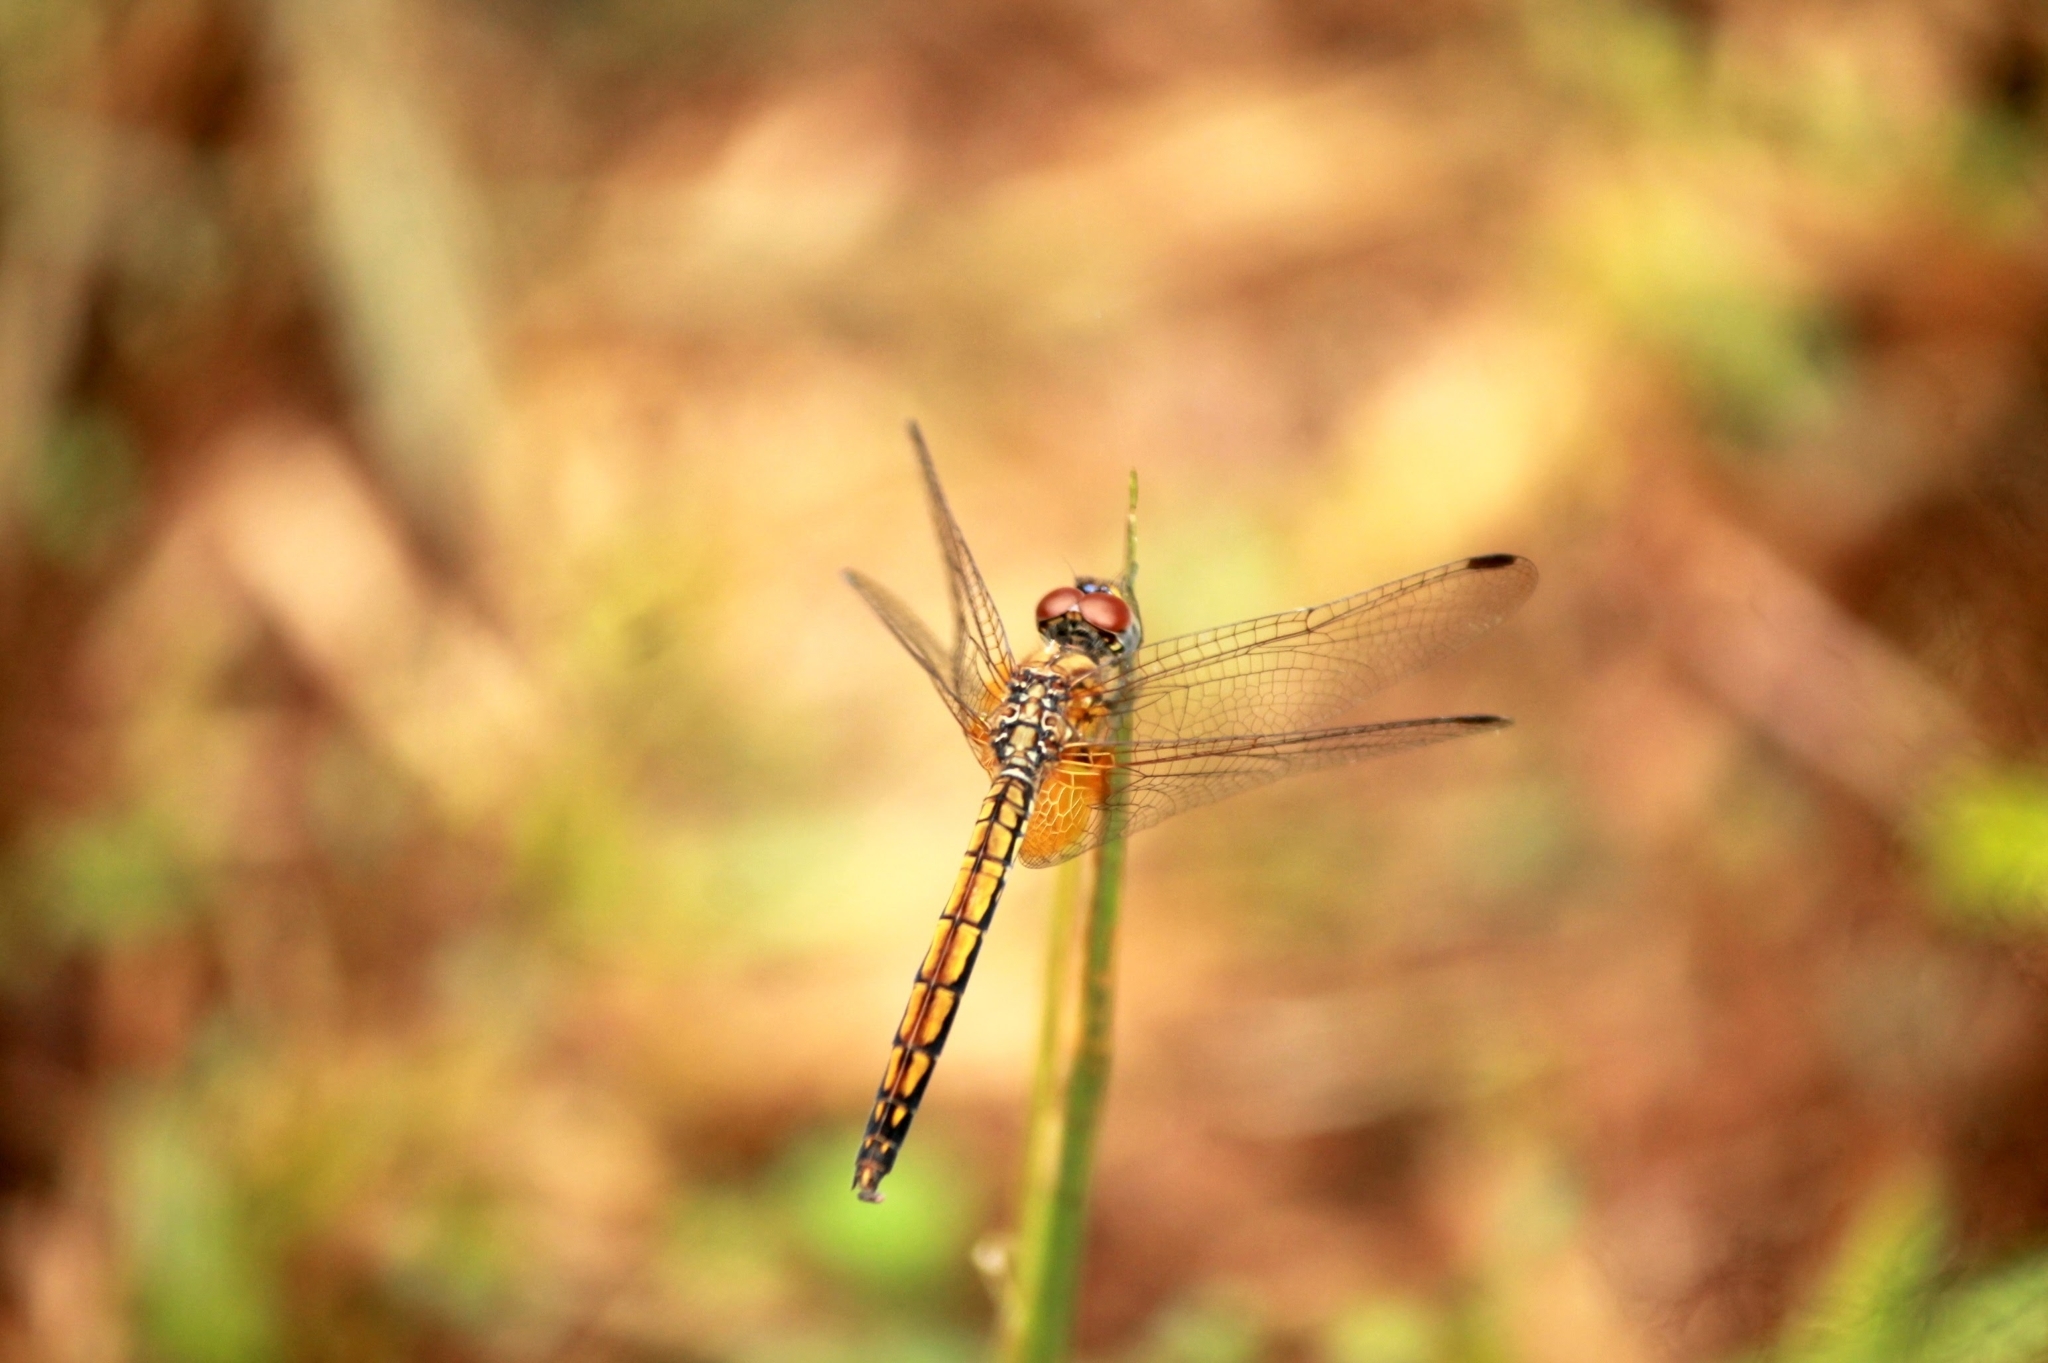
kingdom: Animalia
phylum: Arthropoda
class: Insecta
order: Odonata
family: Libellulidae
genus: Trithemis
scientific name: Trithemis aurora
